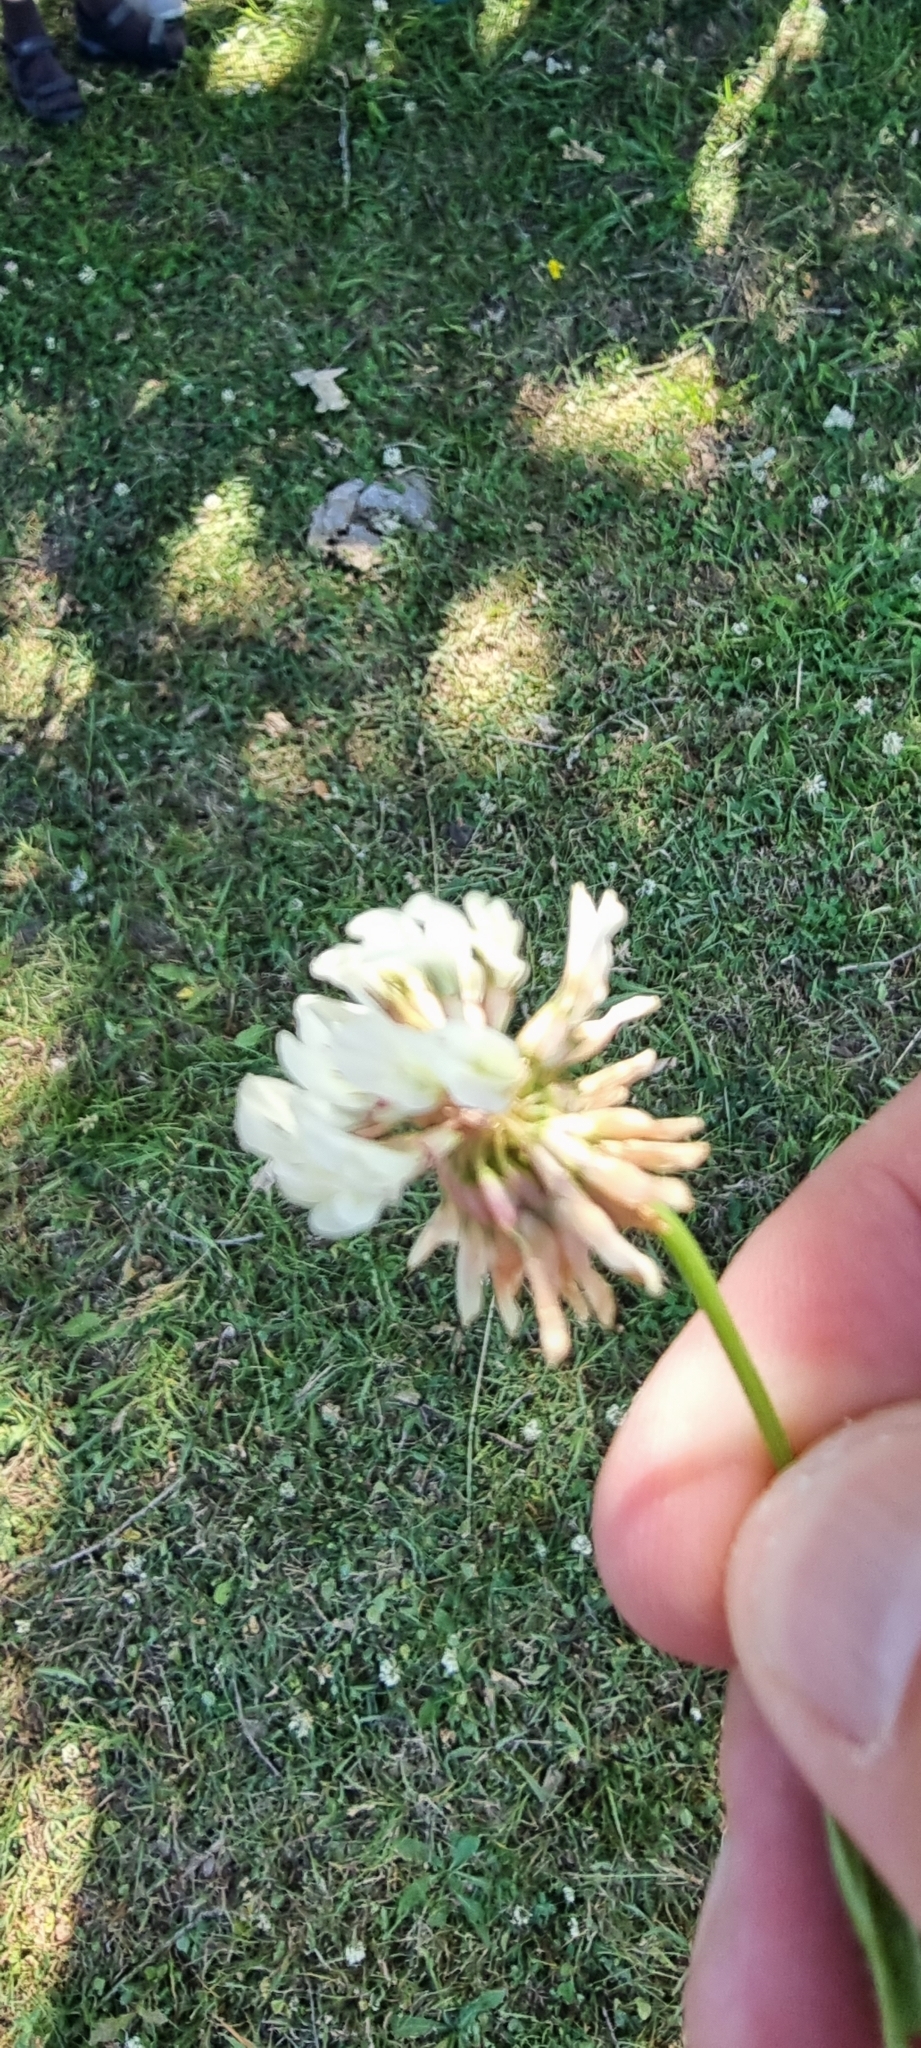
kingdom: Plantae
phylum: Tracheophyta
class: Magnoliopsida
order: Fabales
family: Fabaceae
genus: Trifolium
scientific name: Trifolium repens
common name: White clover
